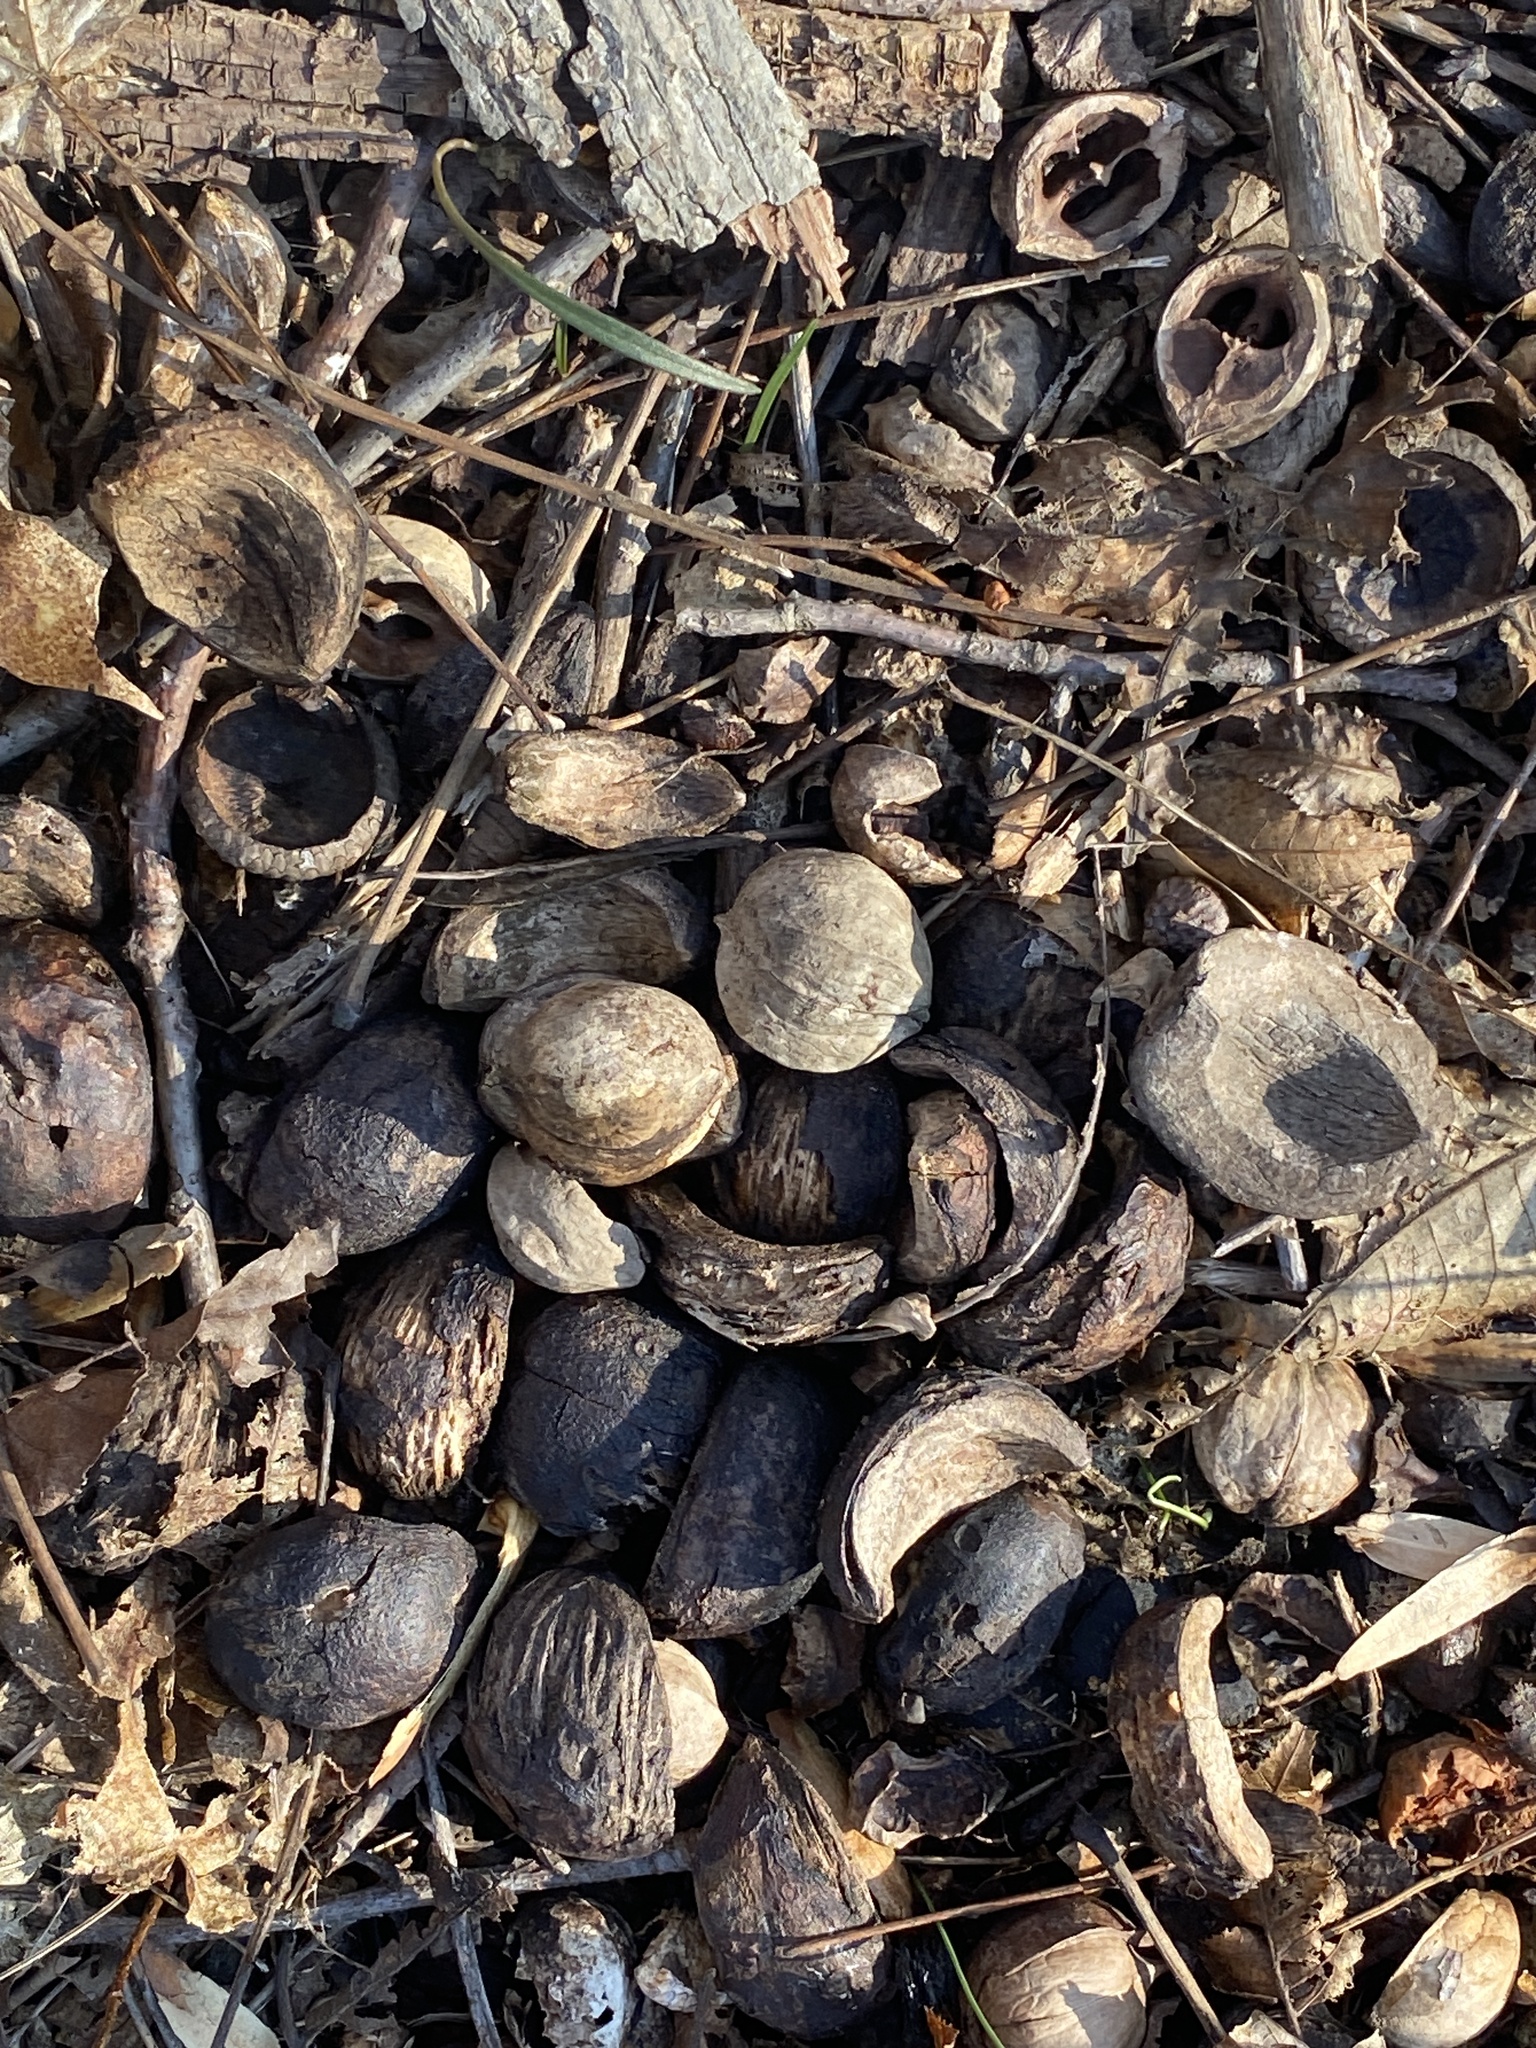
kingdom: Plantae
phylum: Tracheophyta
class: Magnoliopsida
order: Fagales
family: Juglandaceae
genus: Carya
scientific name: Carya ovata
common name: Shagbark hickory
